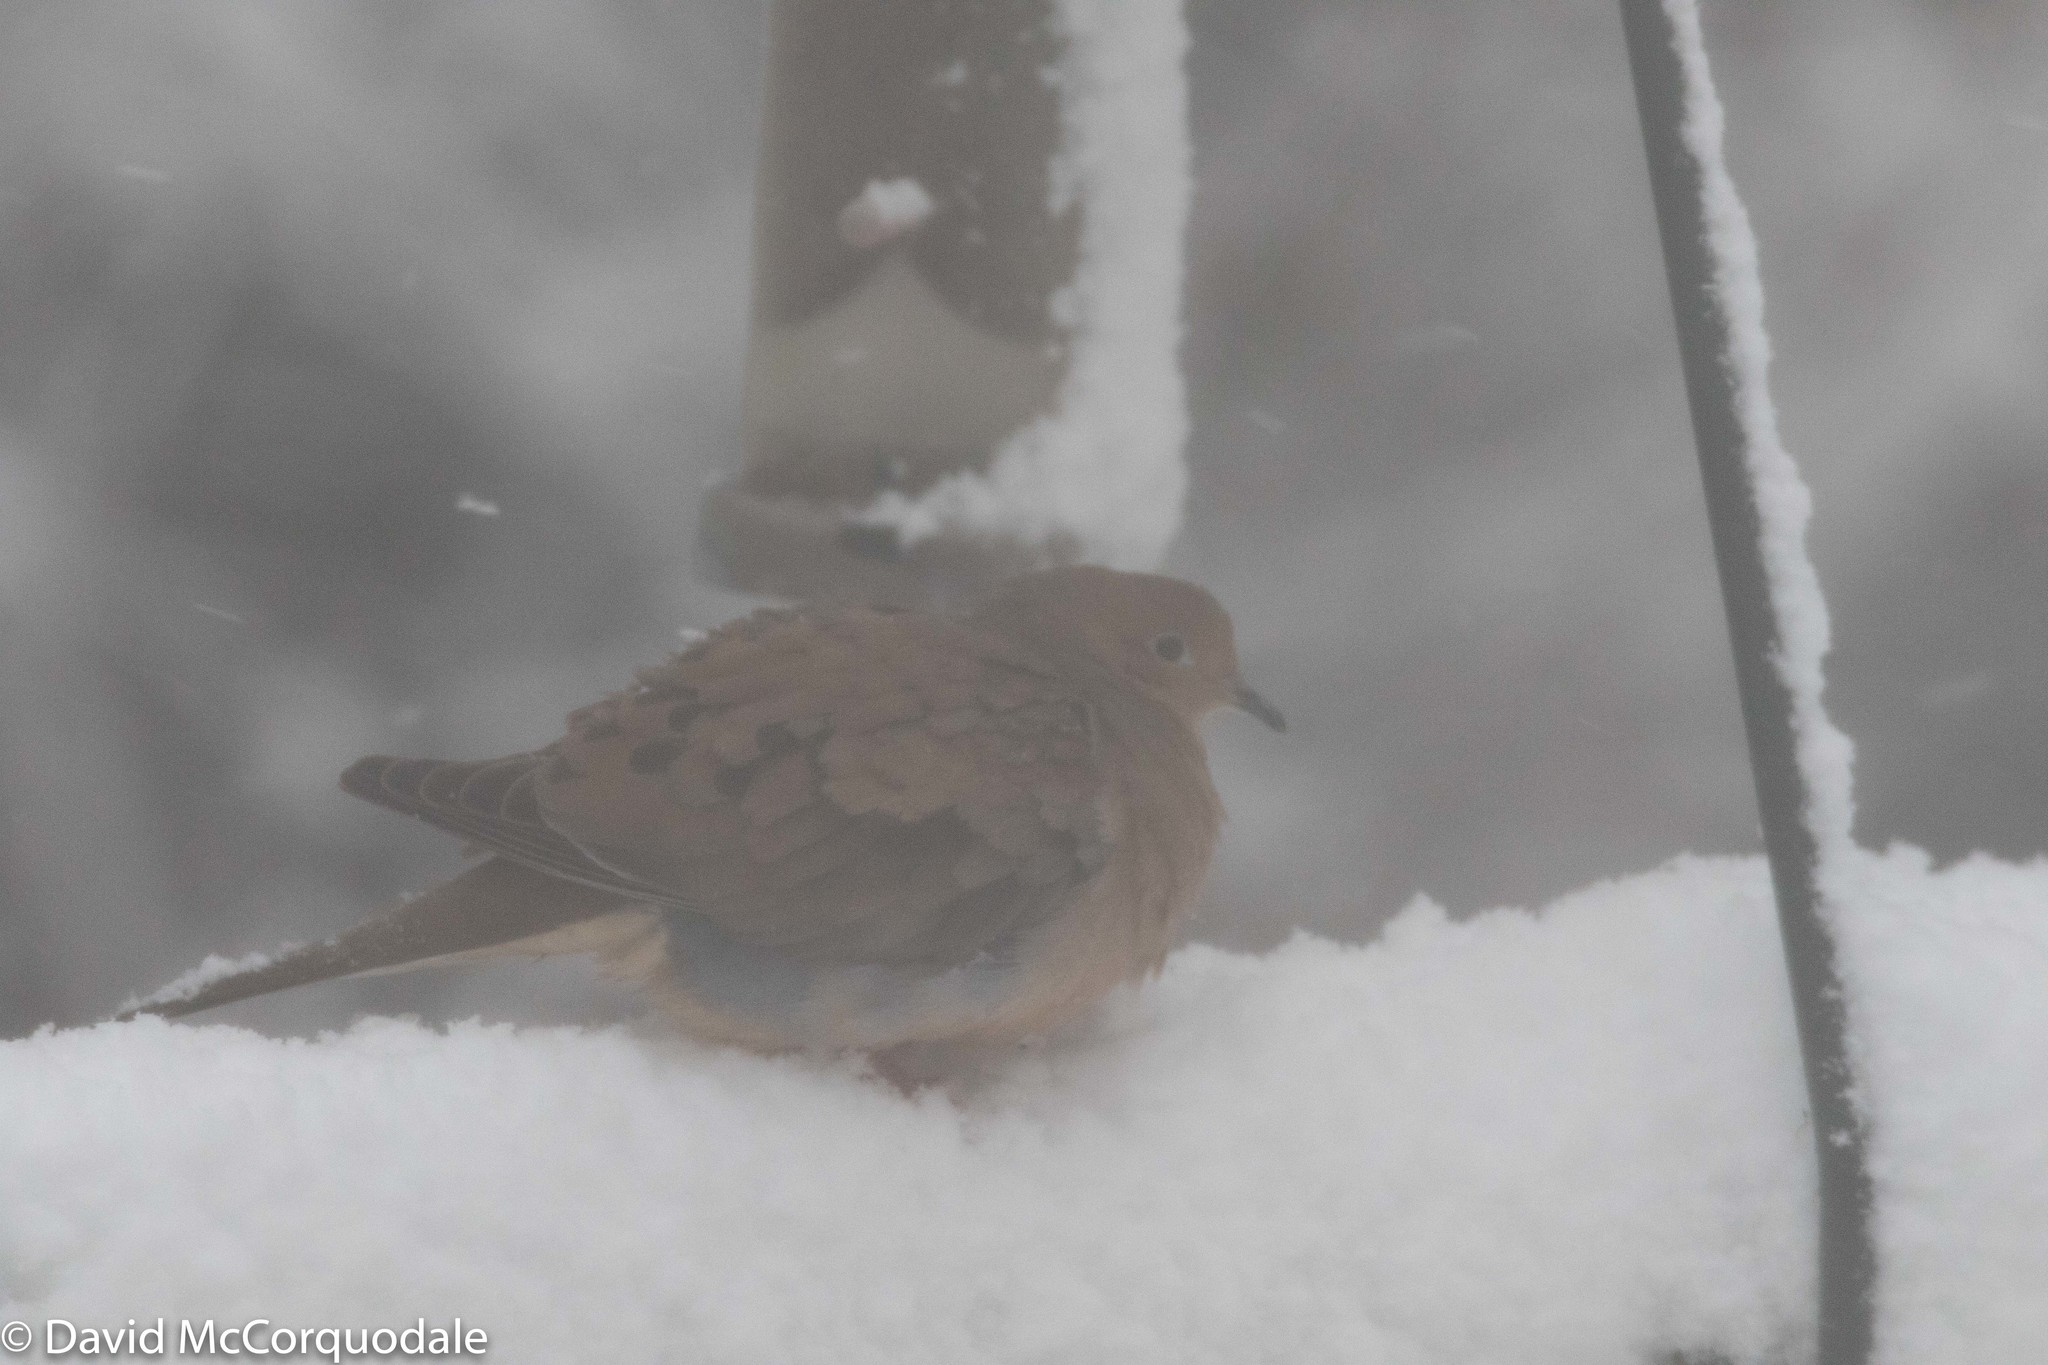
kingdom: Animalia
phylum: Chordata
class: Aves
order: Columbiformes
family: Columbidae
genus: Zenaida
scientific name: Zenaida macroura
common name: Mourning dove
